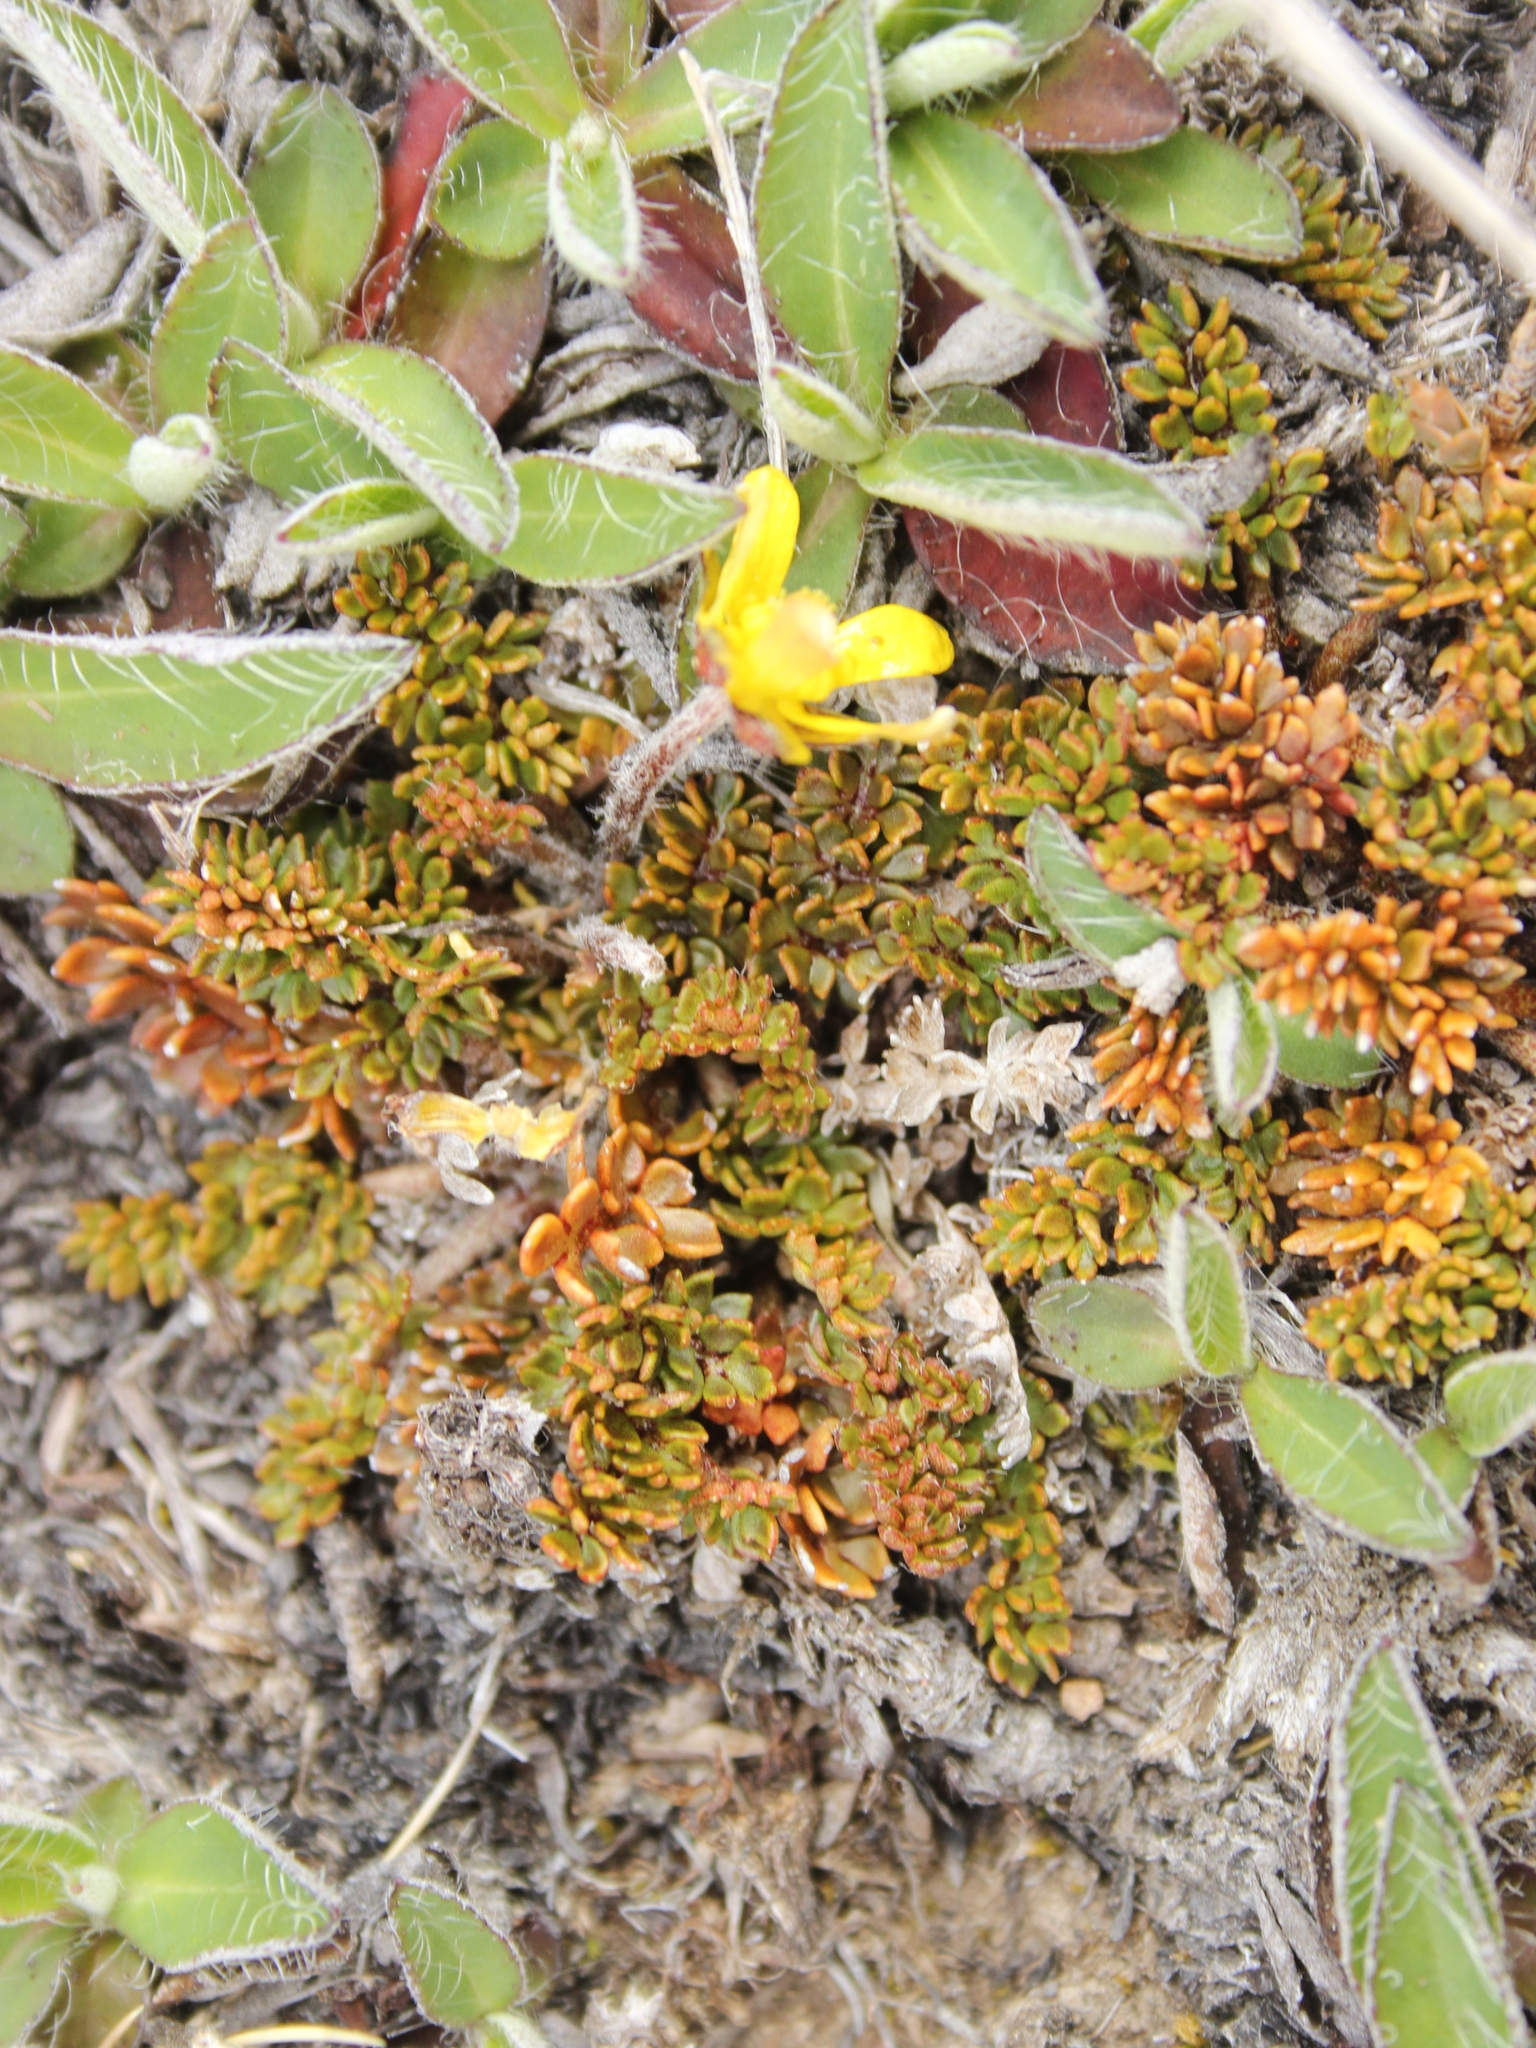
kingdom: Plantae
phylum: Tracheophyta
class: Magnoliopsida
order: Ranunculales
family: Ranunculaceae
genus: Ranunculus
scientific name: Ranunculus gracilipes
